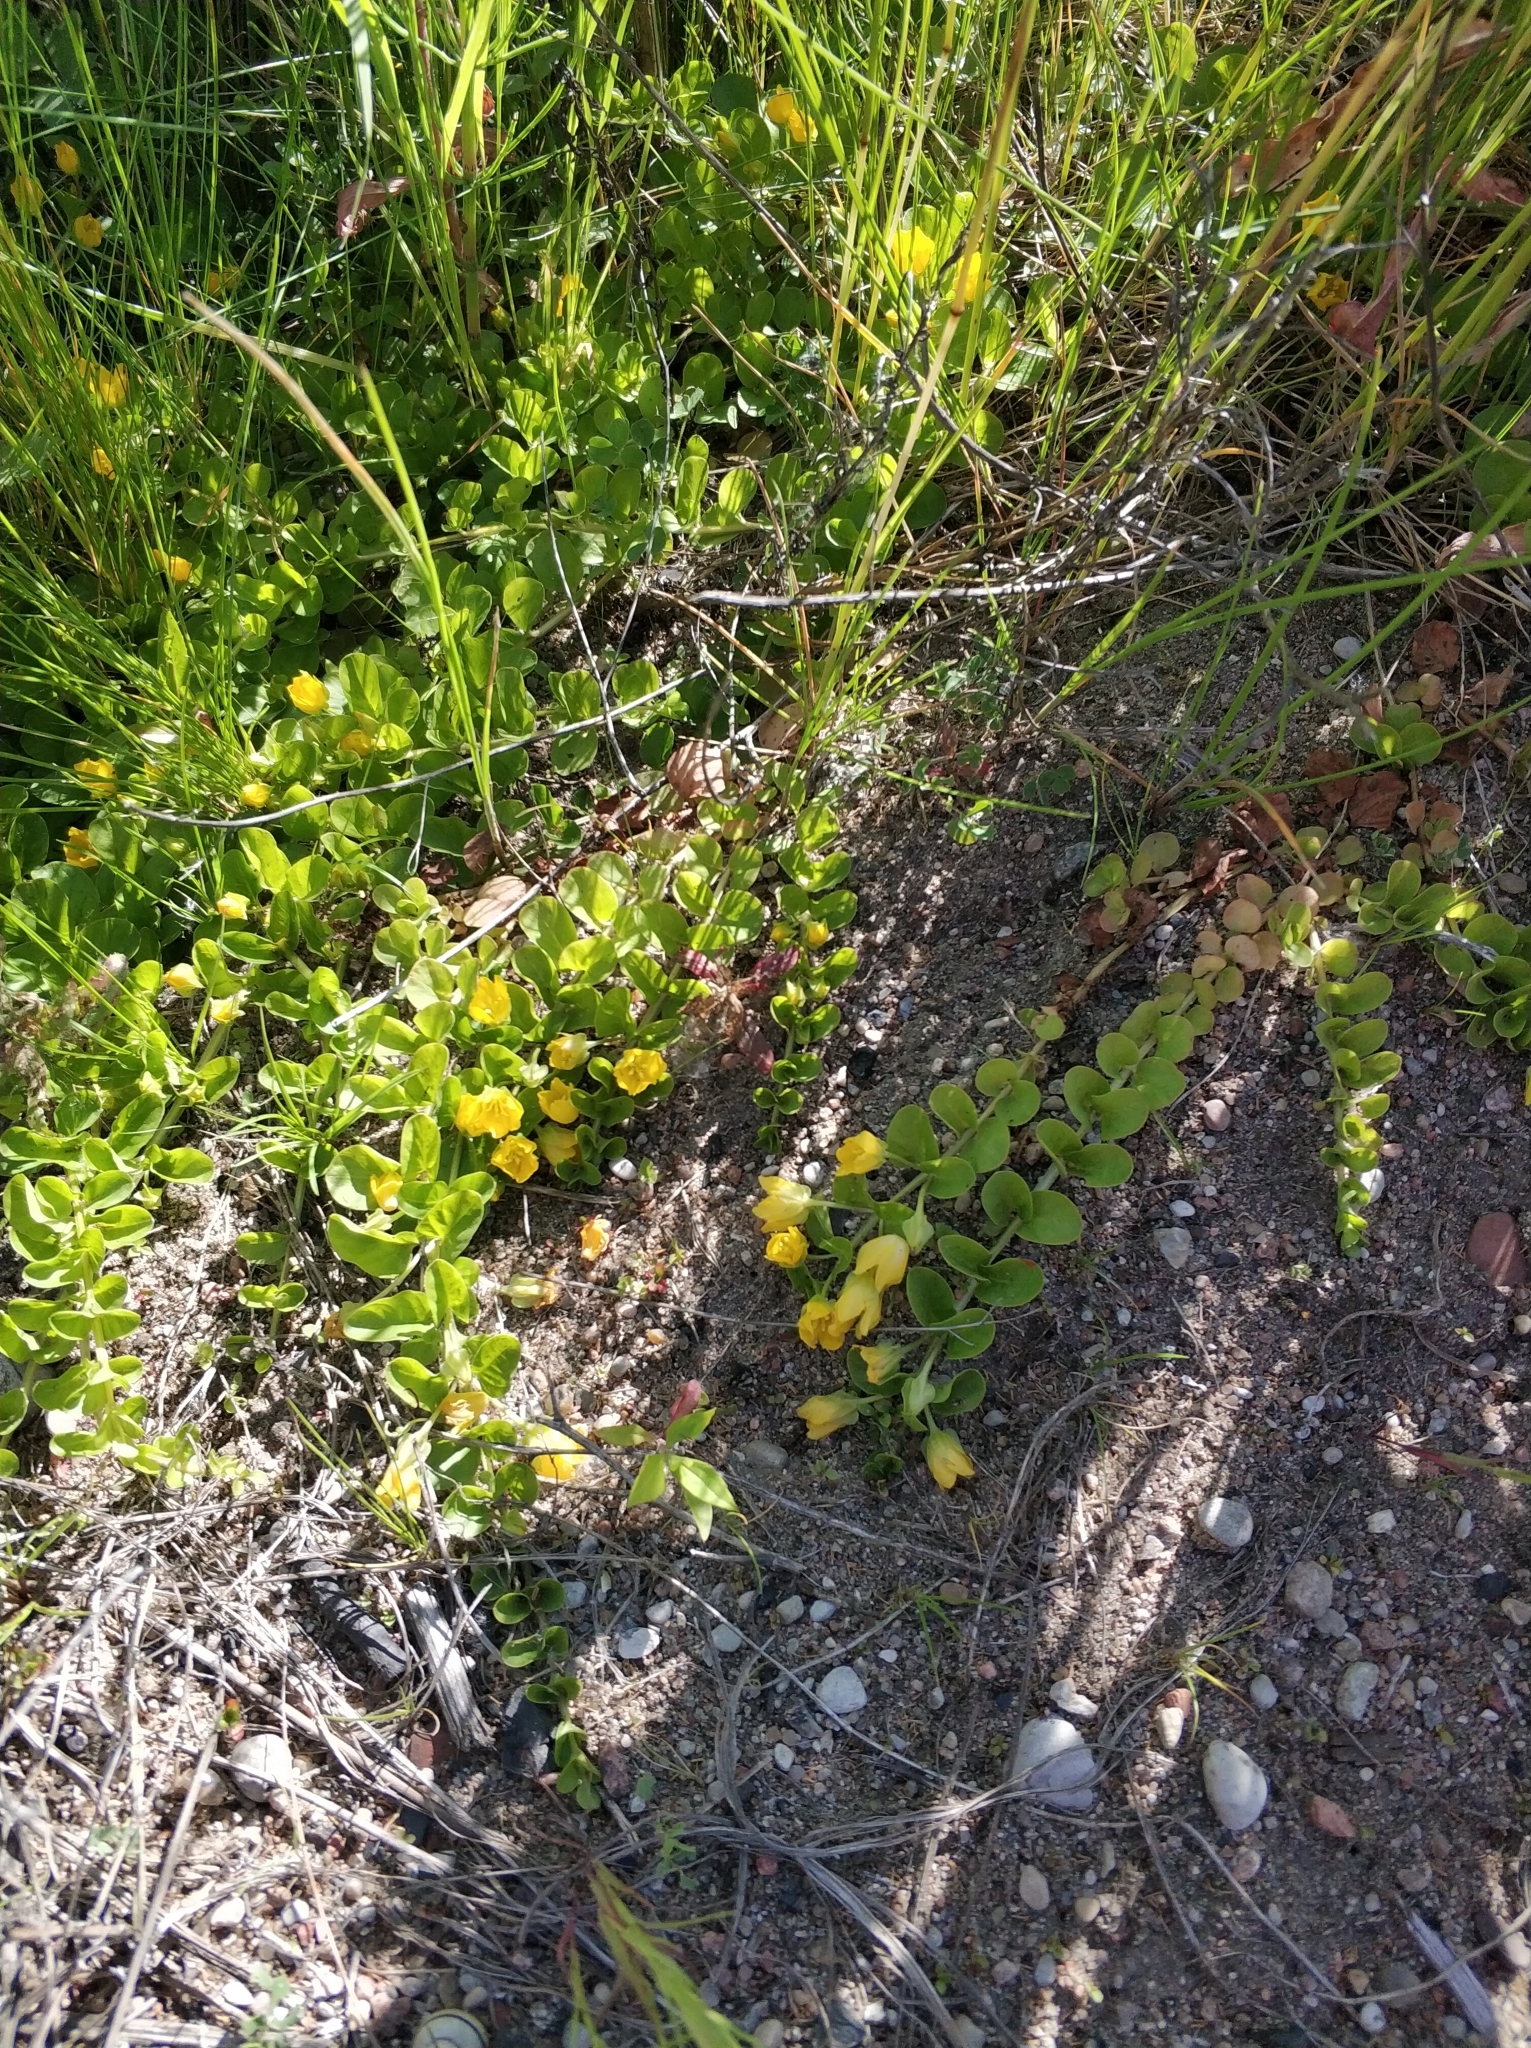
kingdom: Plantae
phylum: Tracheophyta
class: Magnoliopsida
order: Ericales
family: Primulaceae
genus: Lysimachia
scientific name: Lysimachia nummularia
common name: Moneywort
